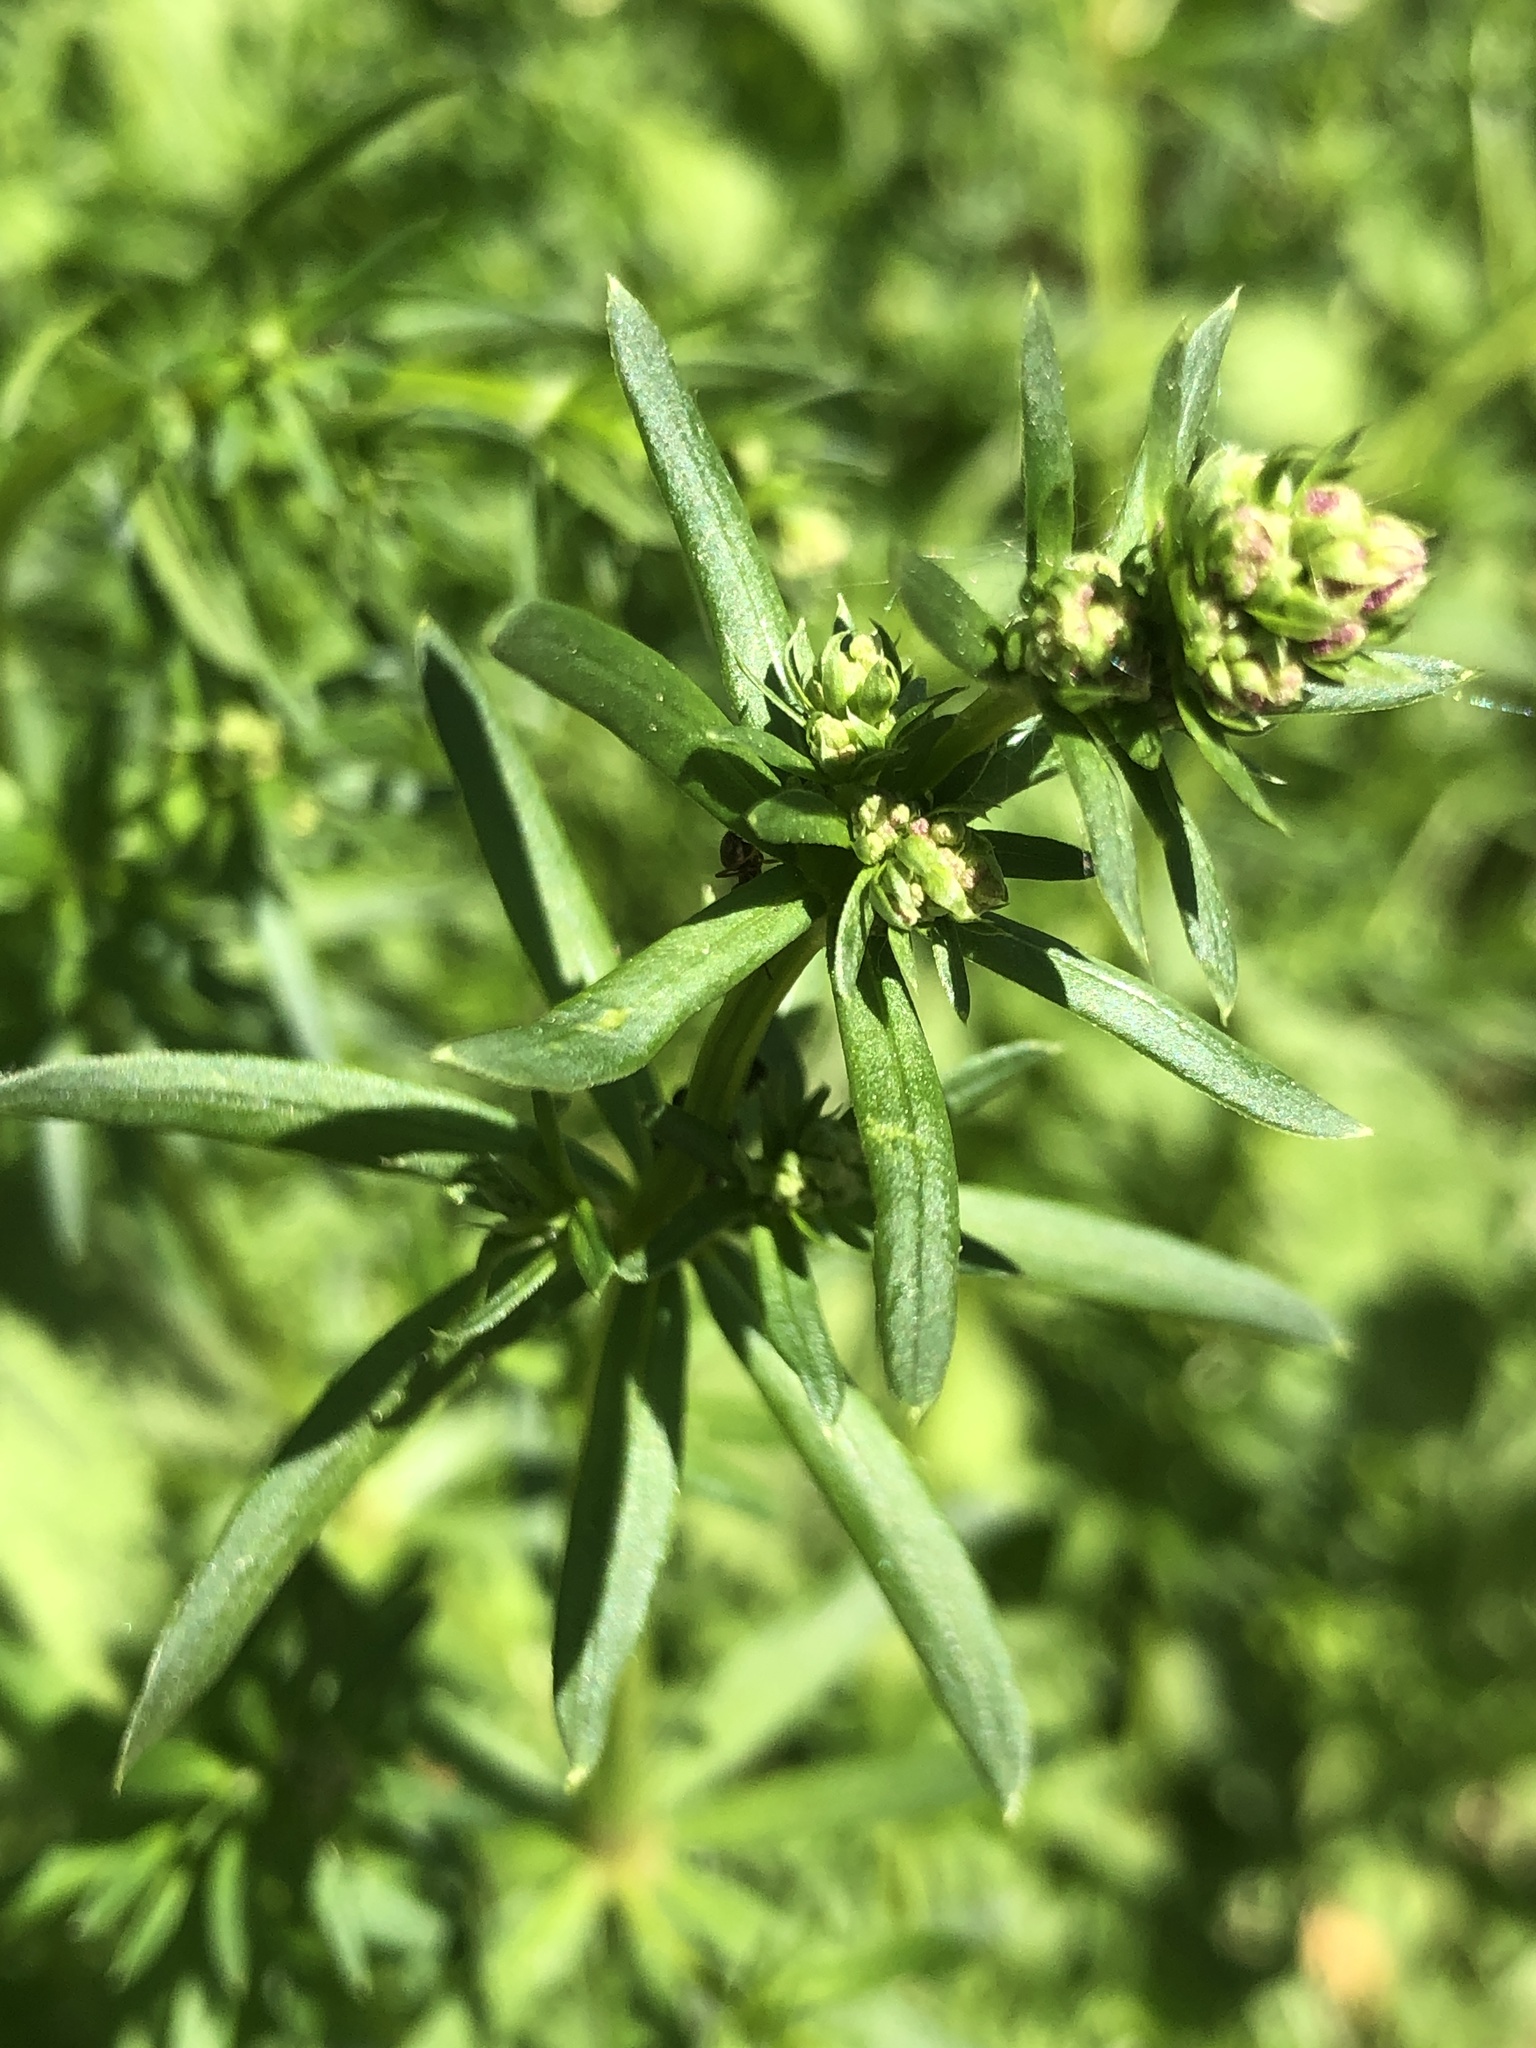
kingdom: Plantae
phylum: Tracheophyta
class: Magnoliopsida
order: Gentianales
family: Rubiaceae
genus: Galium
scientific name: Galium mollugo
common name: Hedge bedstraw
